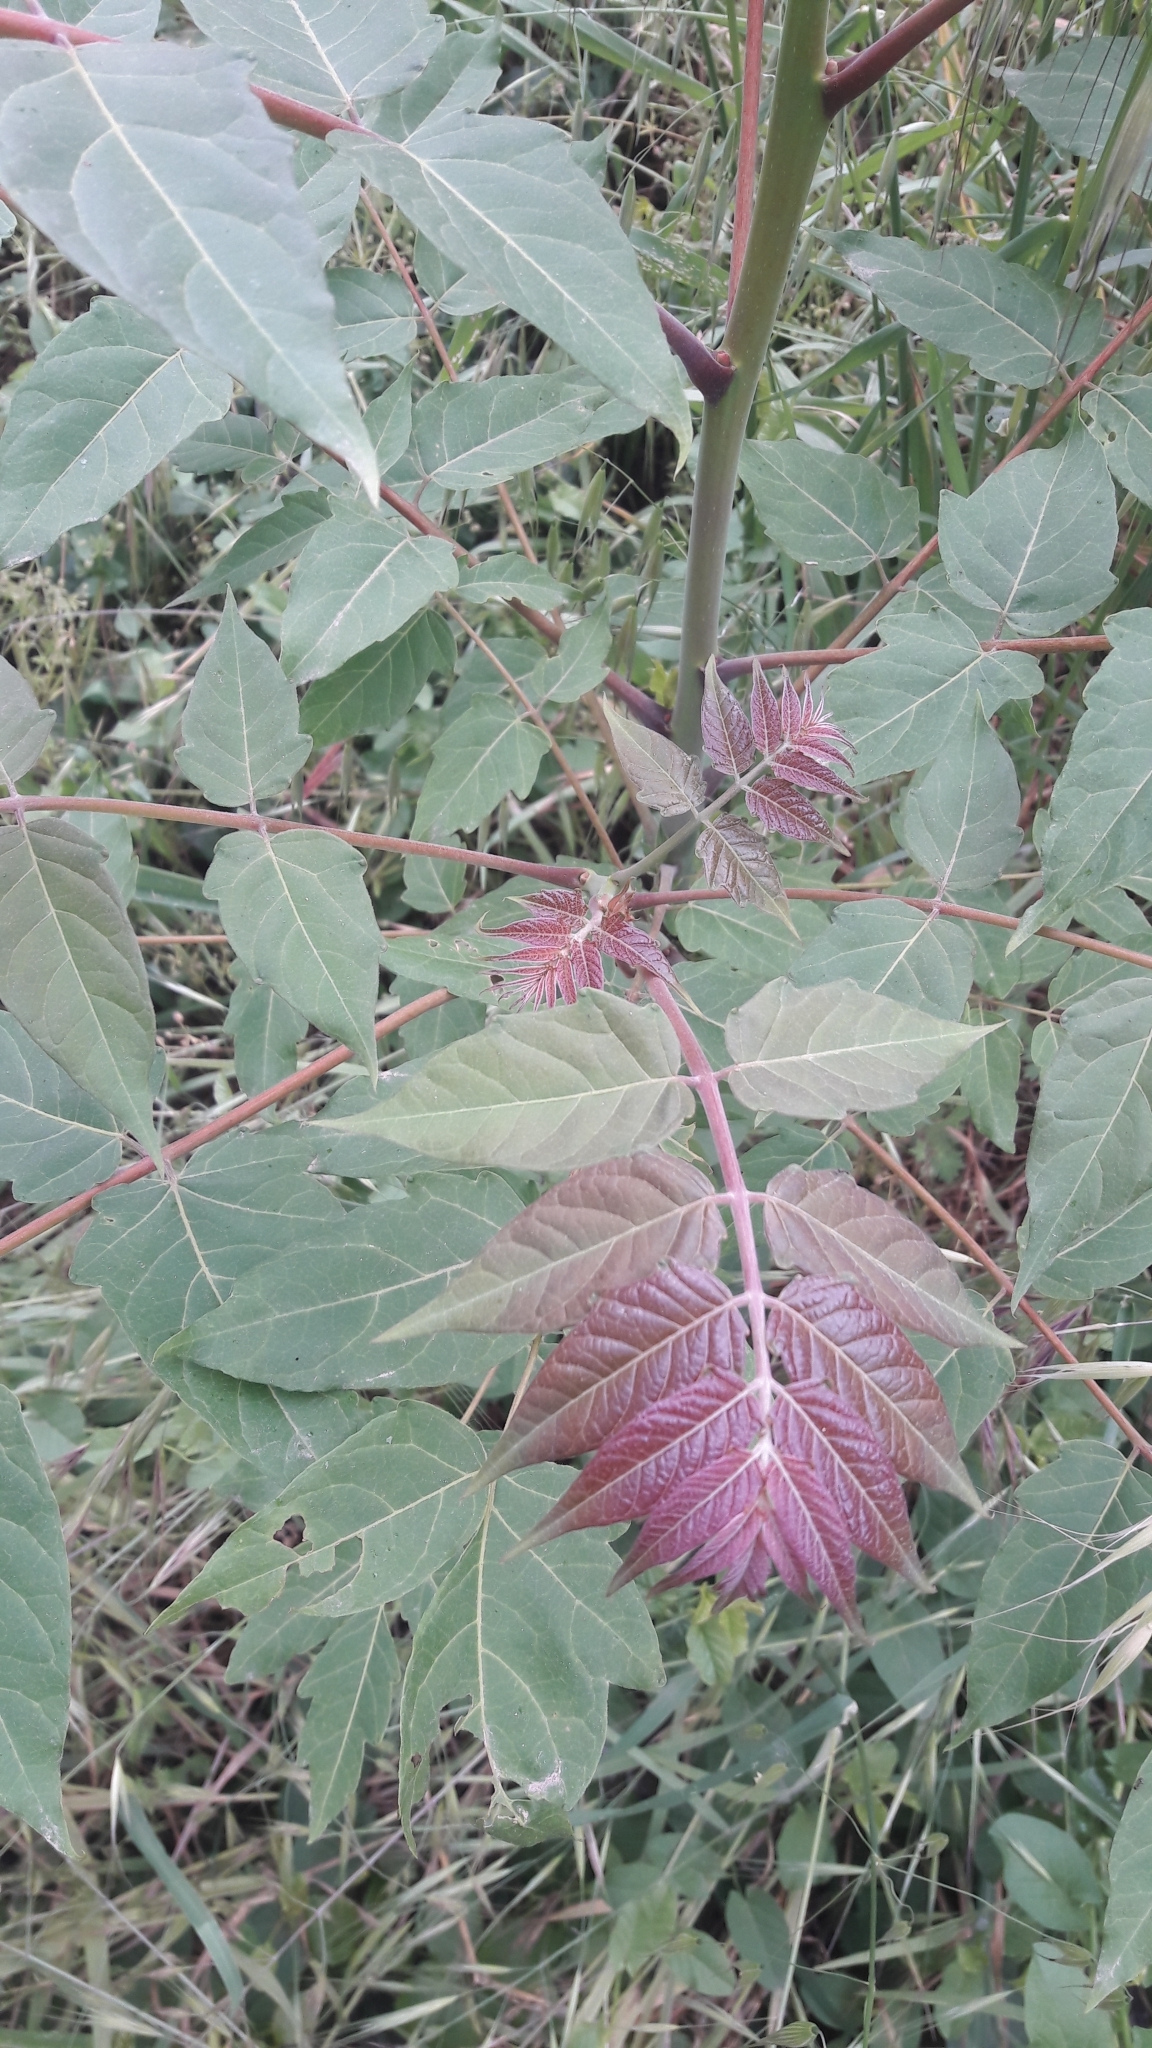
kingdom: Plantae
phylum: Tracheophyta
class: Magnoliopsida
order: Sapindales
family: Simaroubaceae
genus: Ailanthus
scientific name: Ailanthus altissima
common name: Tree-of-heaven
